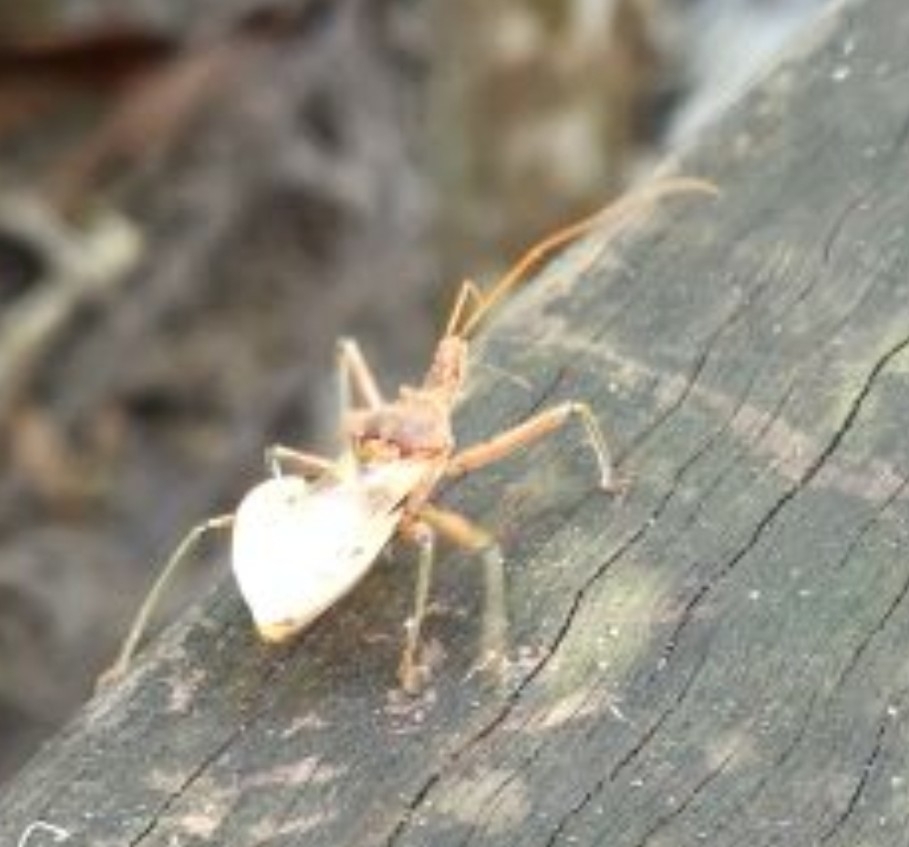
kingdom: Animalia
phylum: Arthropoda
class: Insecta
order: Hemiptera
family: Reduviidae
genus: Pristhesancus
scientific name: Pristhesancus plagipennis
